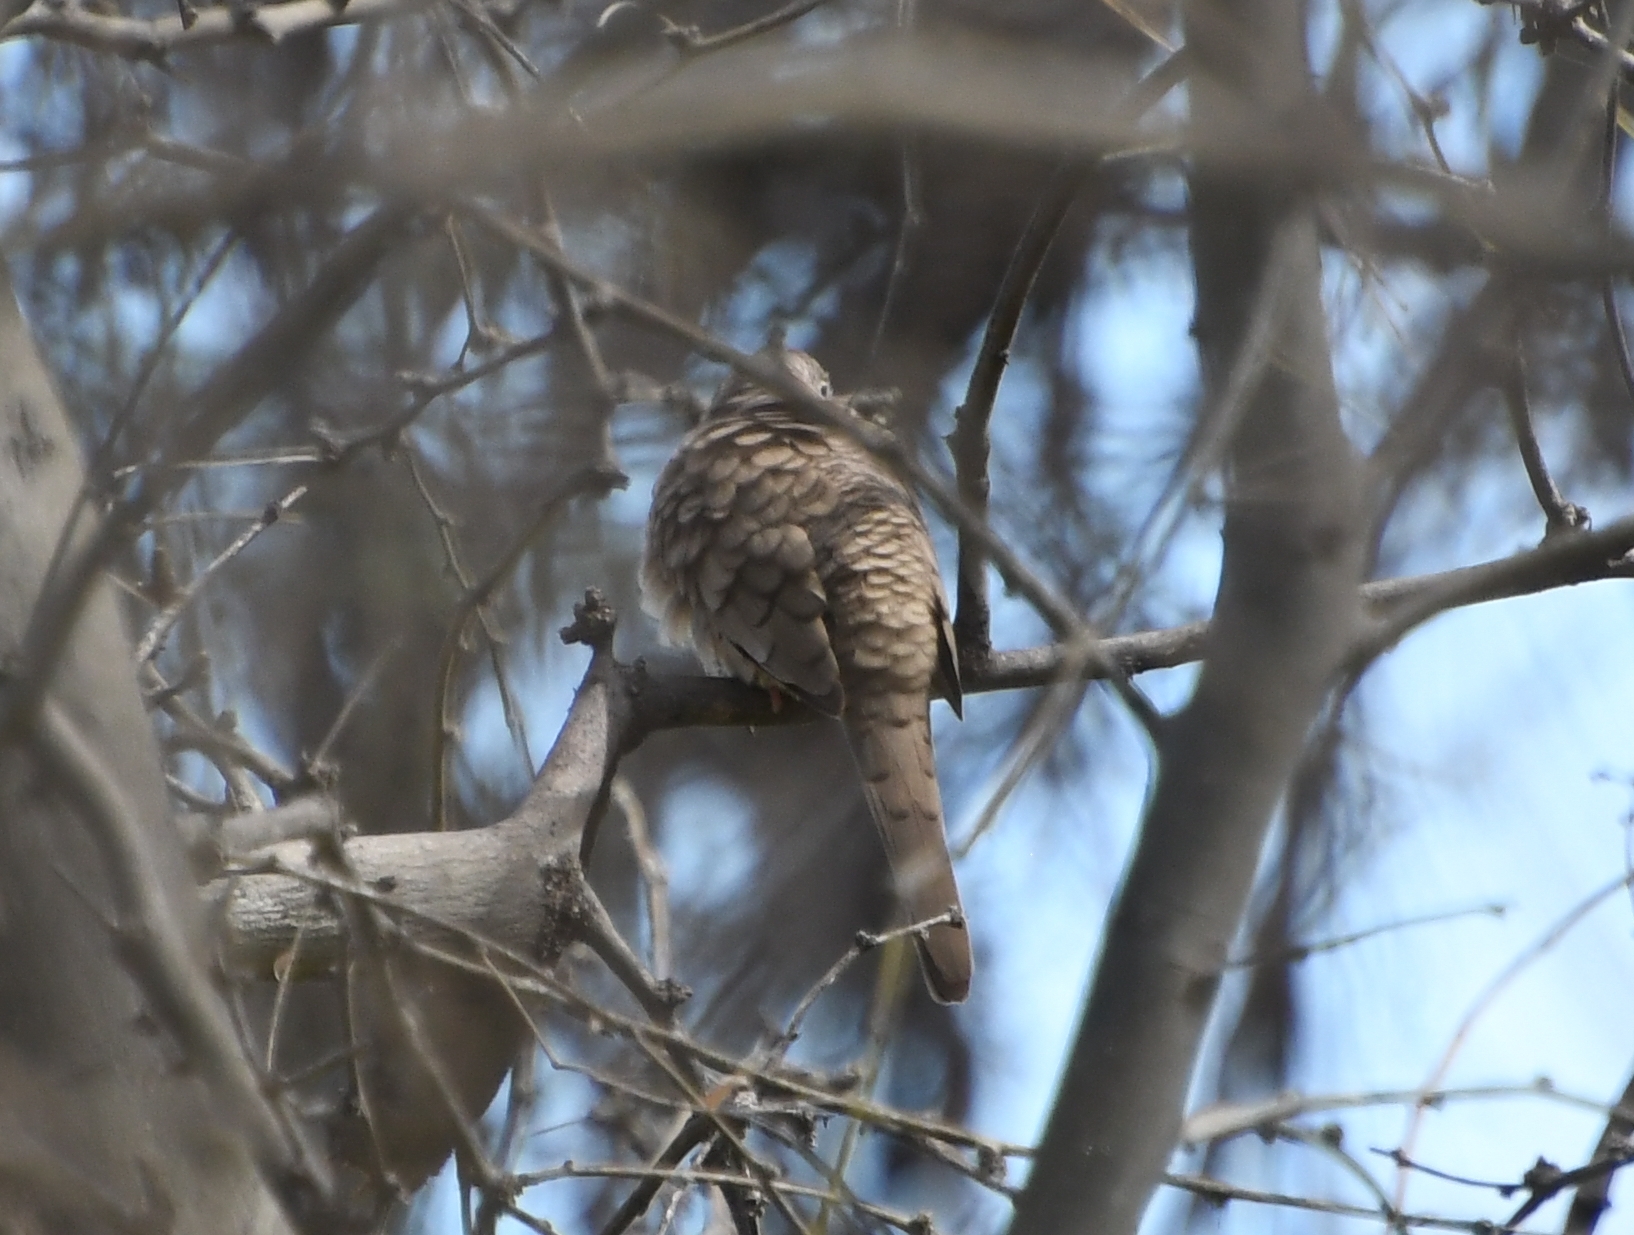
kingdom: Animalia
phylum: Chordata
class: Aves
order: Columbiformes
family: Columbidae
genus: Columbina
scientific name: Columbina inca
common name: Inca dove
